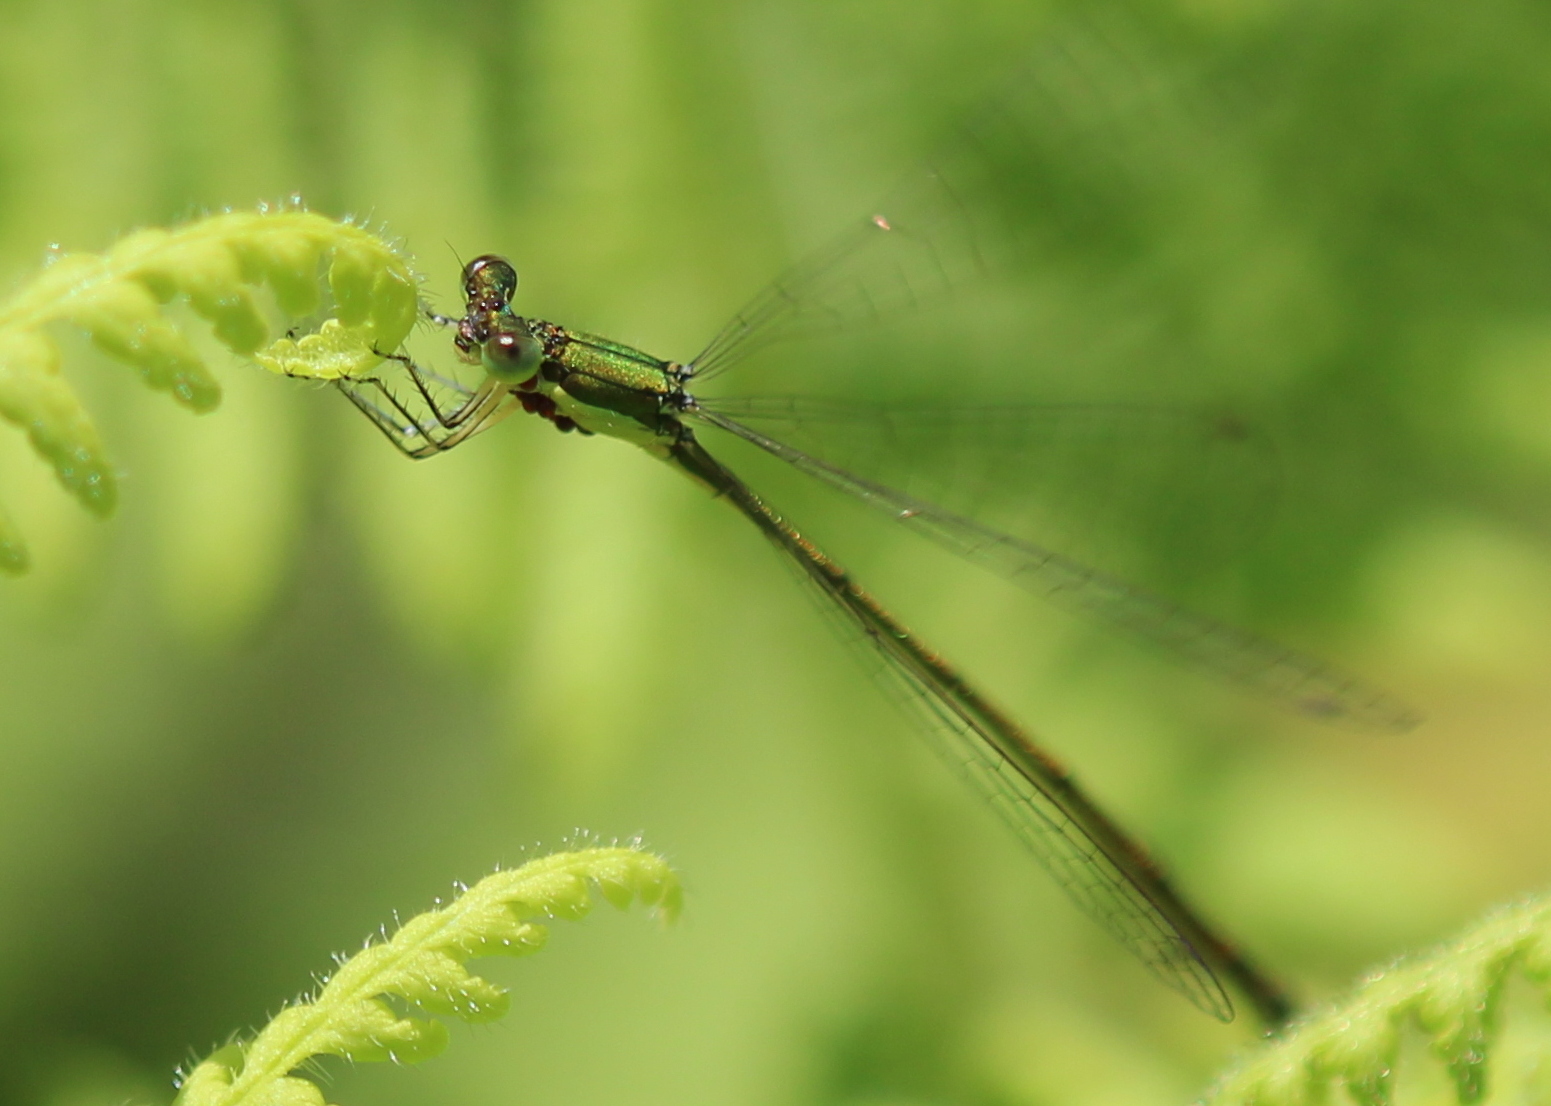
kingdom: Animalia
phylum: Arthropoda
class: Insecta
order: Odonata
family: Coenagrionidae
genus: Nehalennia
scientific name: Nehalennia irene
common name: Sedge sprite
